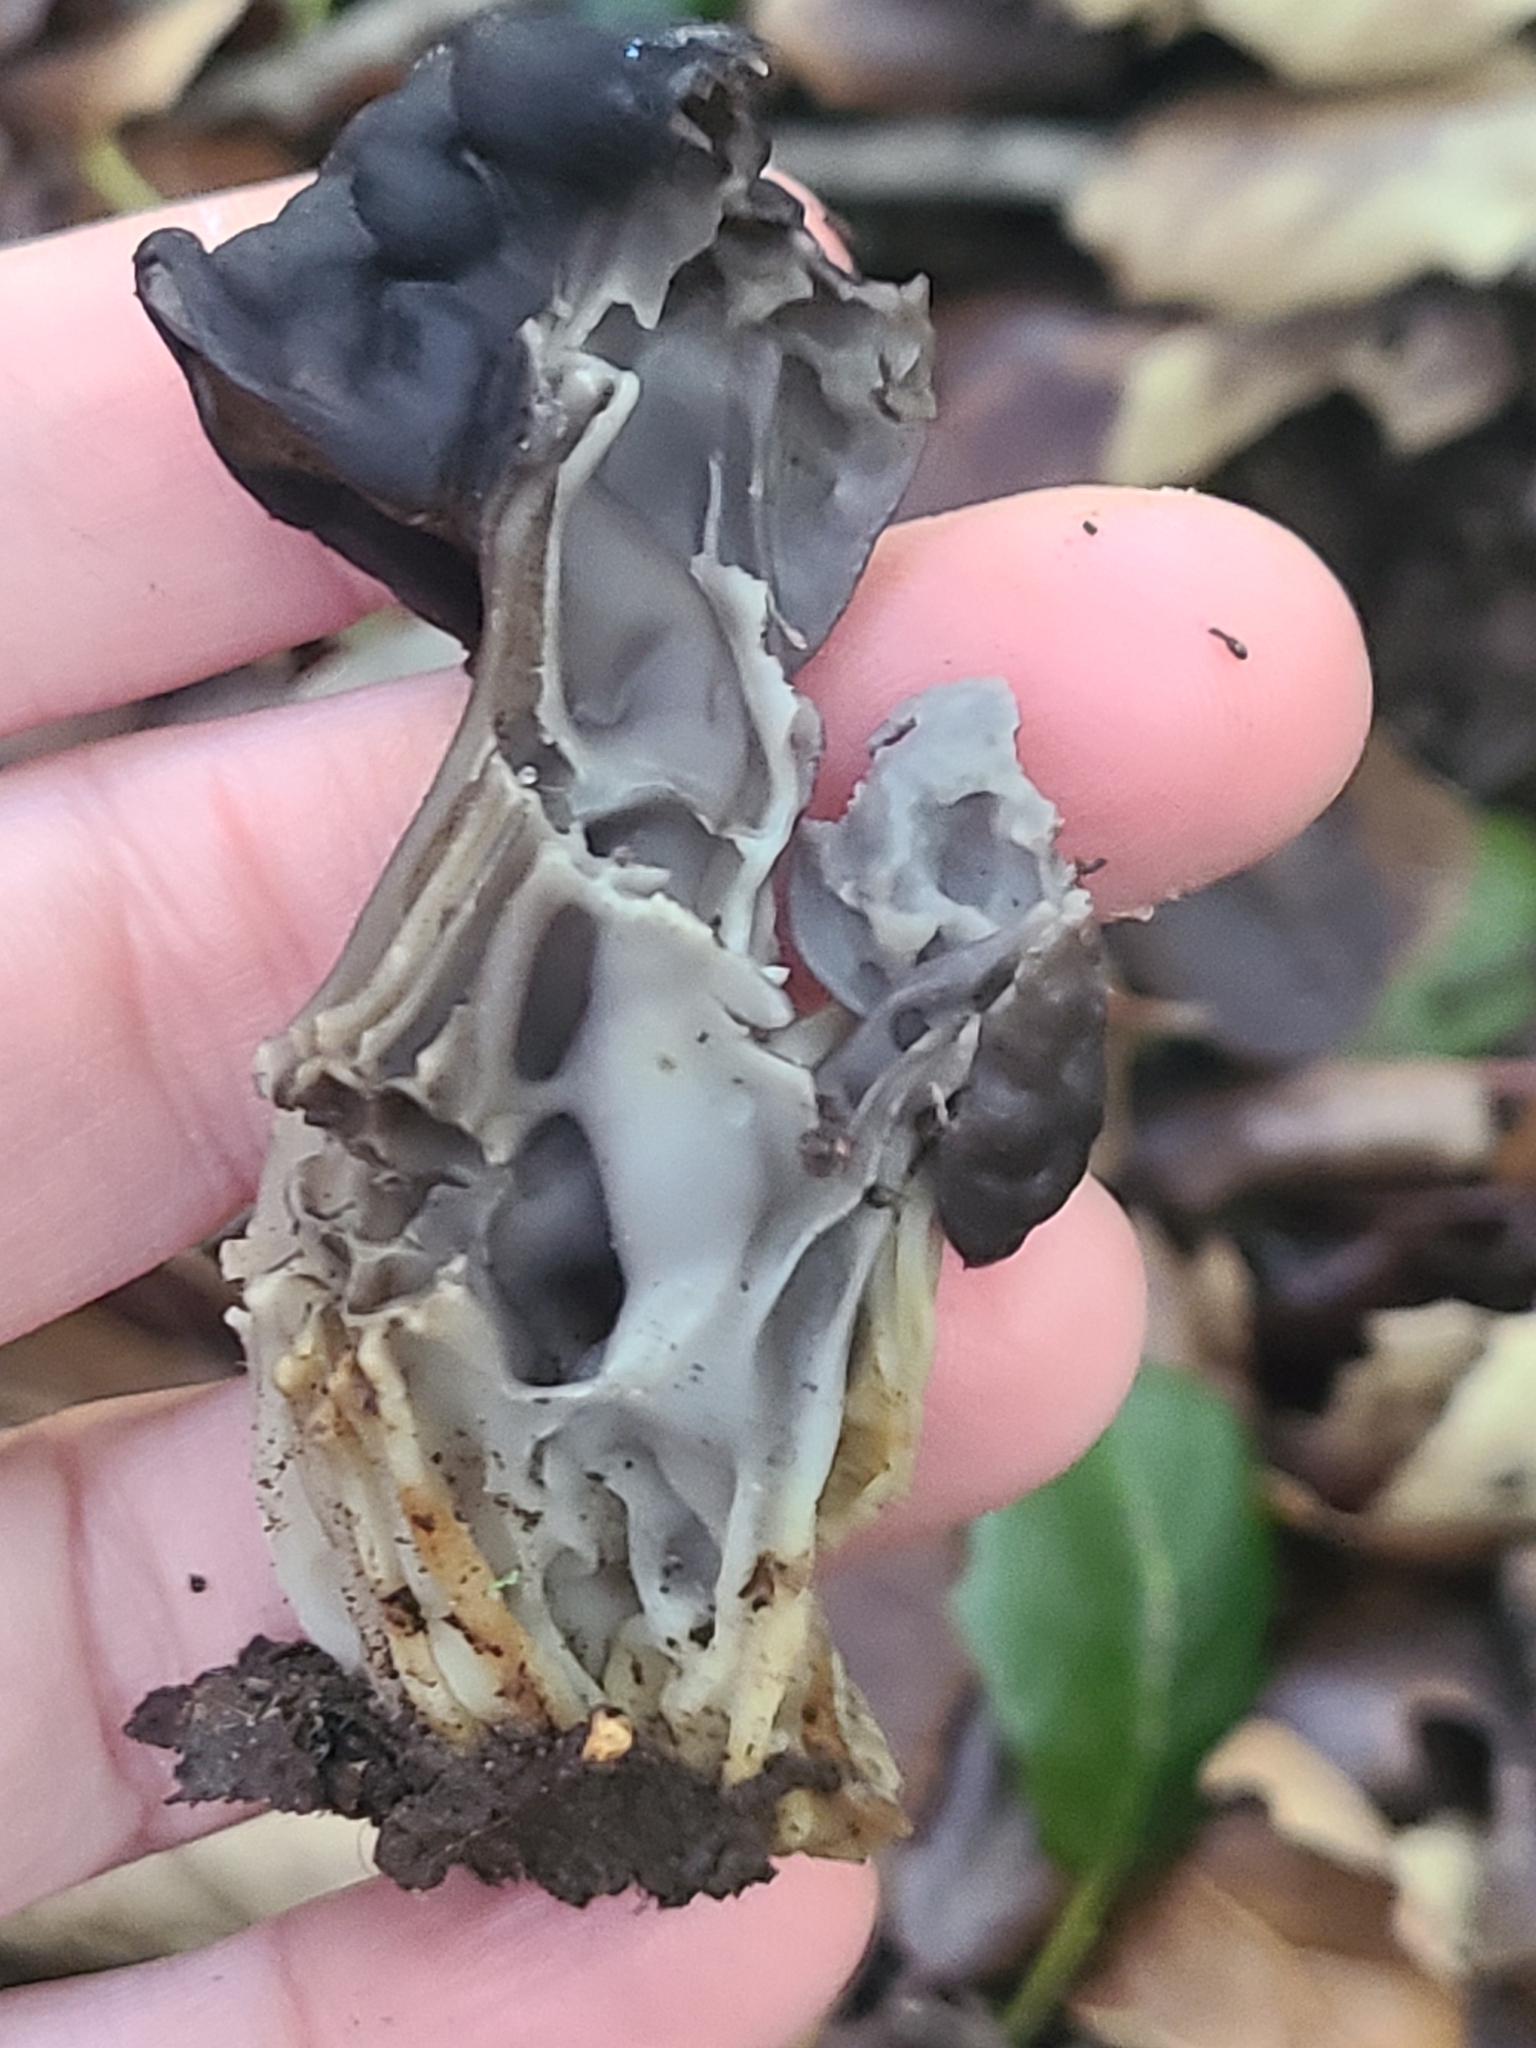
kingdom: Fungi
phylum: Ascomycota
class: Pezizomycetes
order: Pezizales
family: Helvellaceae
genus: Helvella
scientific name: Helvella dryophila
